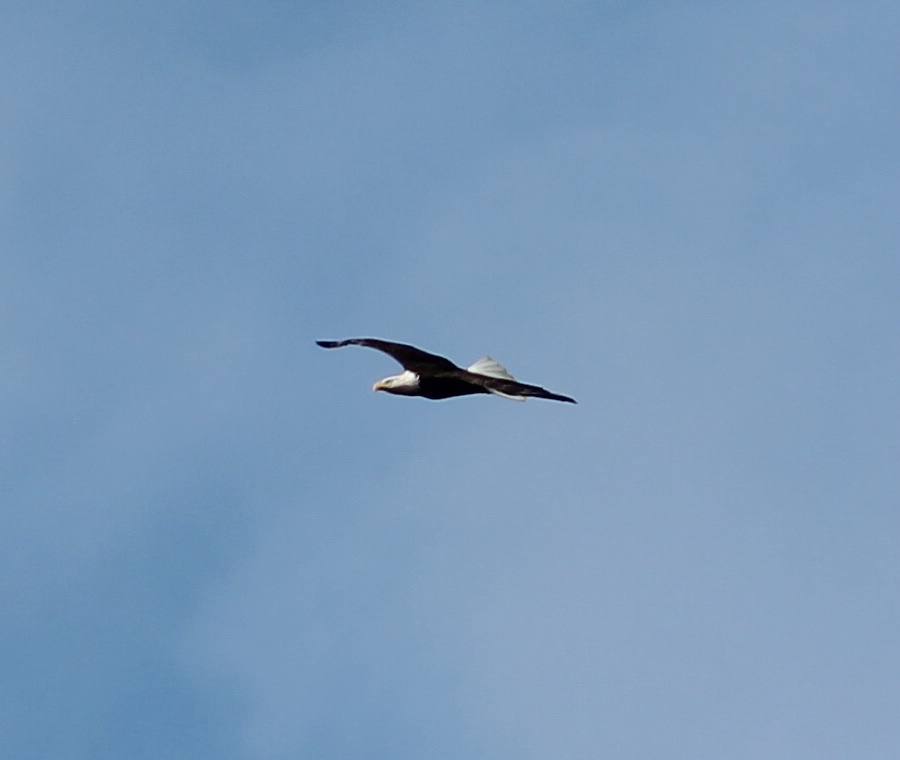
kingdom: Animalia
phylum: Chordata
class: Aves
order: Accipitriformes
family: Accipitridae
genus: Haliaeetus
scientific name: Haliaeetus leucocephalus
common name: Bald eagle
